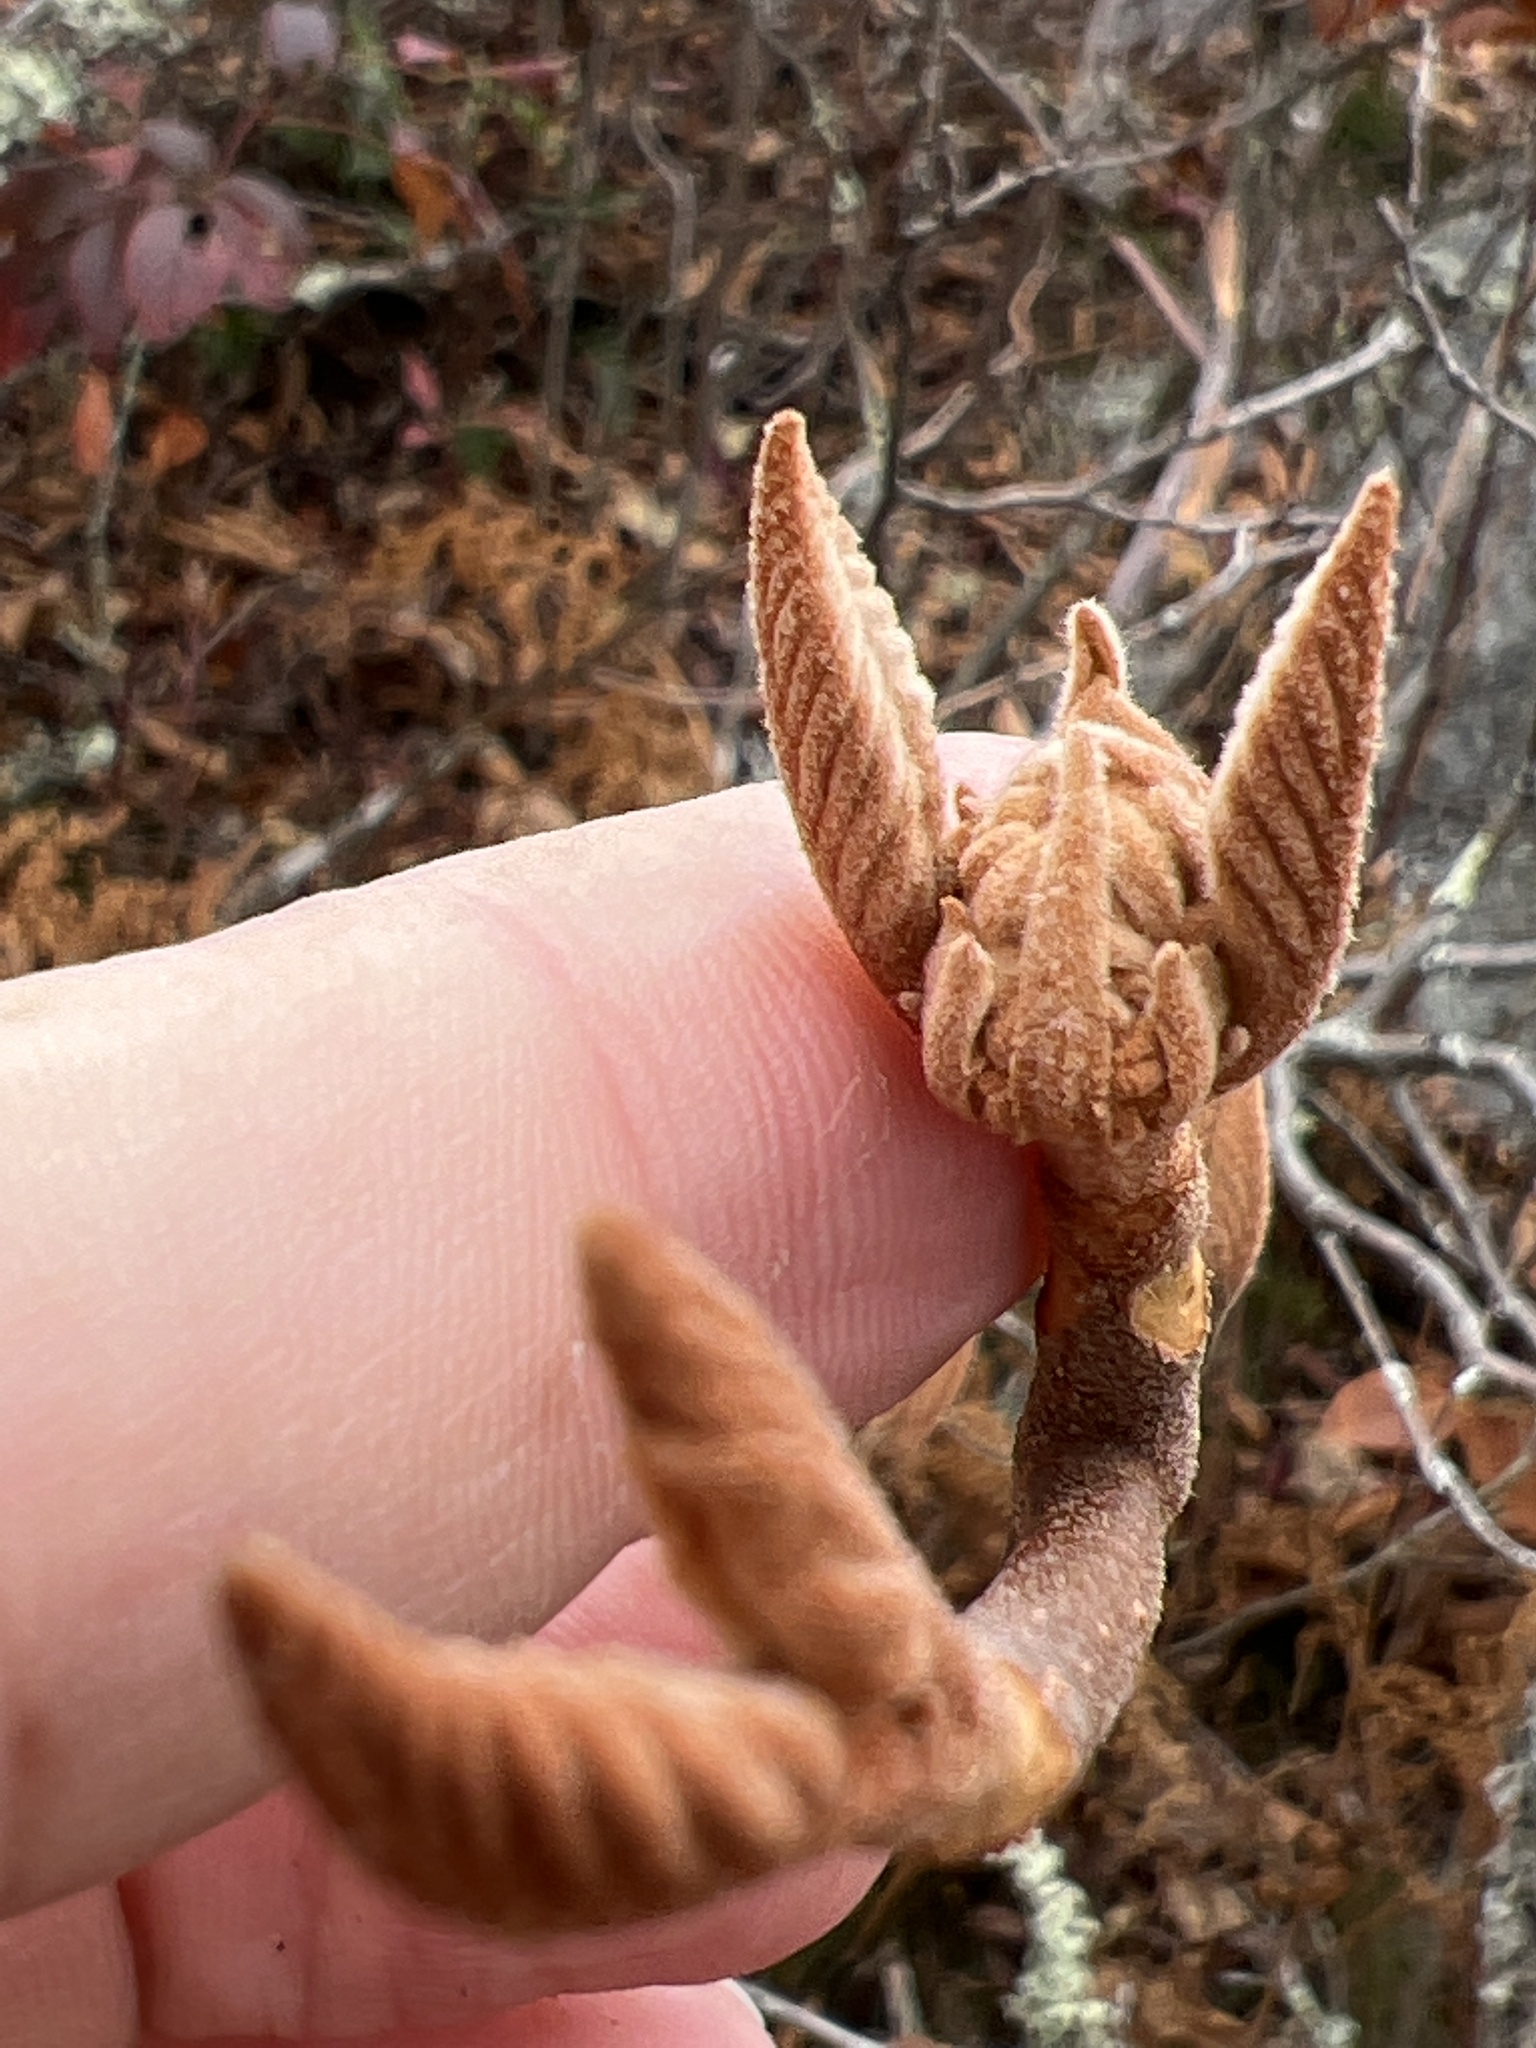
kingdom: Plantae
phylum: Tracheophyta
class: Magnoliopsida
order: Dipsacales
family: Viburnaceae
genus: Viburnum
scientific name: Viburnum lantanoides
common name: Hobblebush
